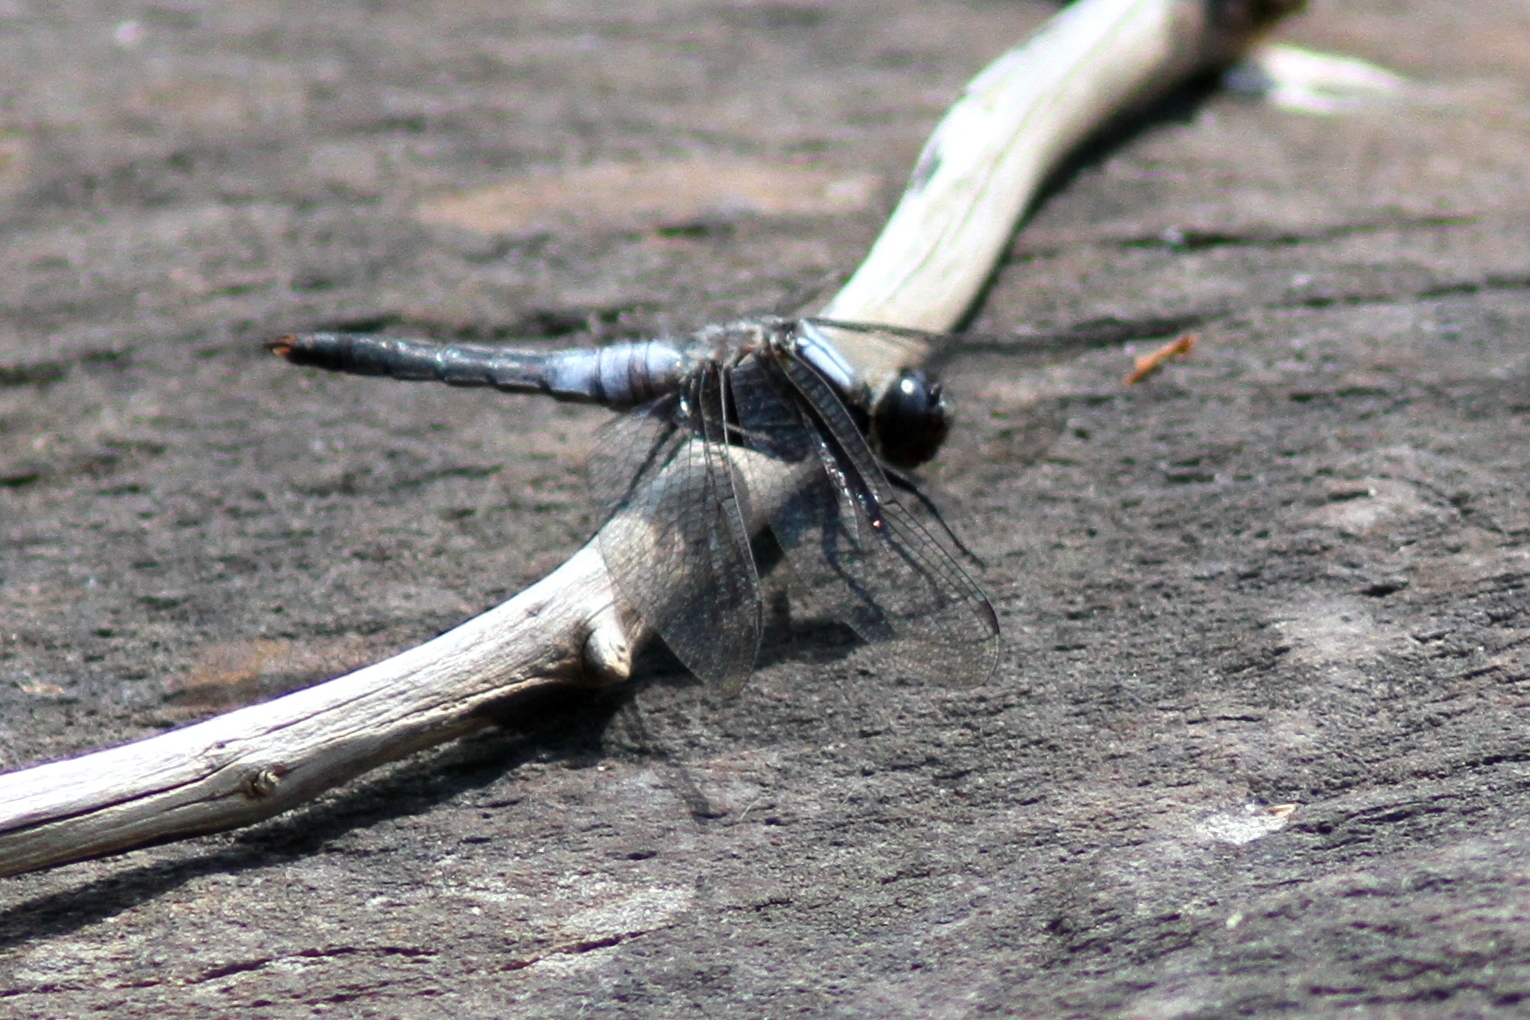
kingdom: Animalia
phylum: Arthropoda
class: Insecta
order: Odonata
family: Libellulidae
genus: Ladona
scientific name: Ladona julia
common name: Chalk-fronted corporal
